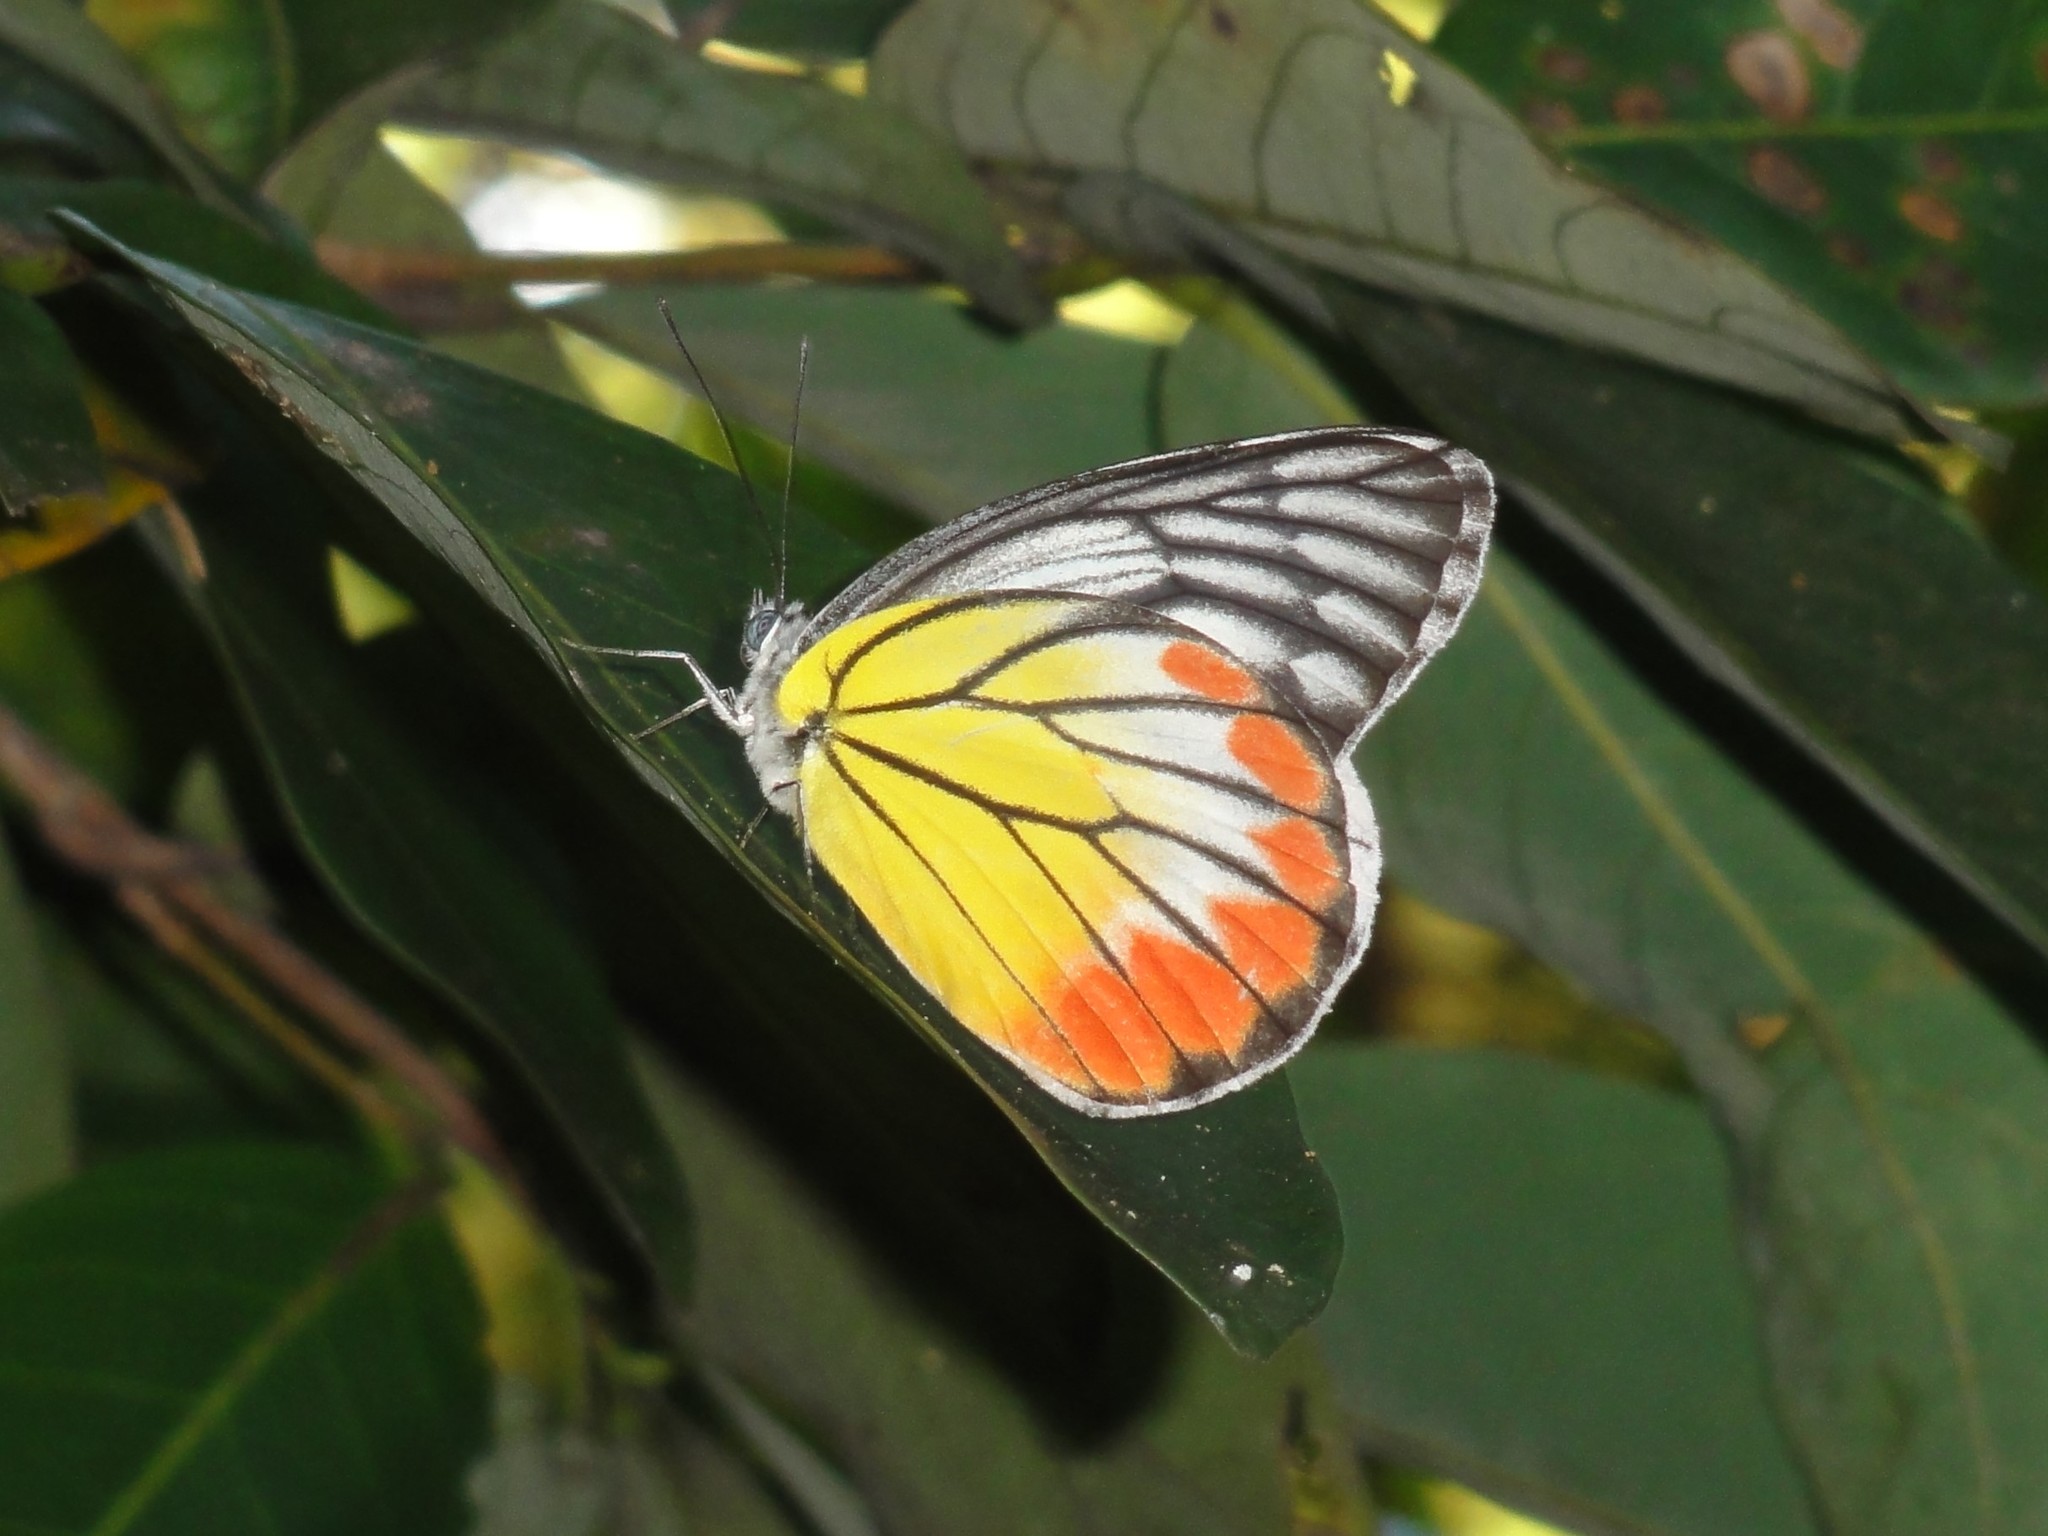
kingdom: Animalia
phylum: Arthropoda
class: Insecta
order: Lepidoptera
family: Pieridae
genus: Delias
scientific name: Delias hyparete
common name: Painted jezebel
